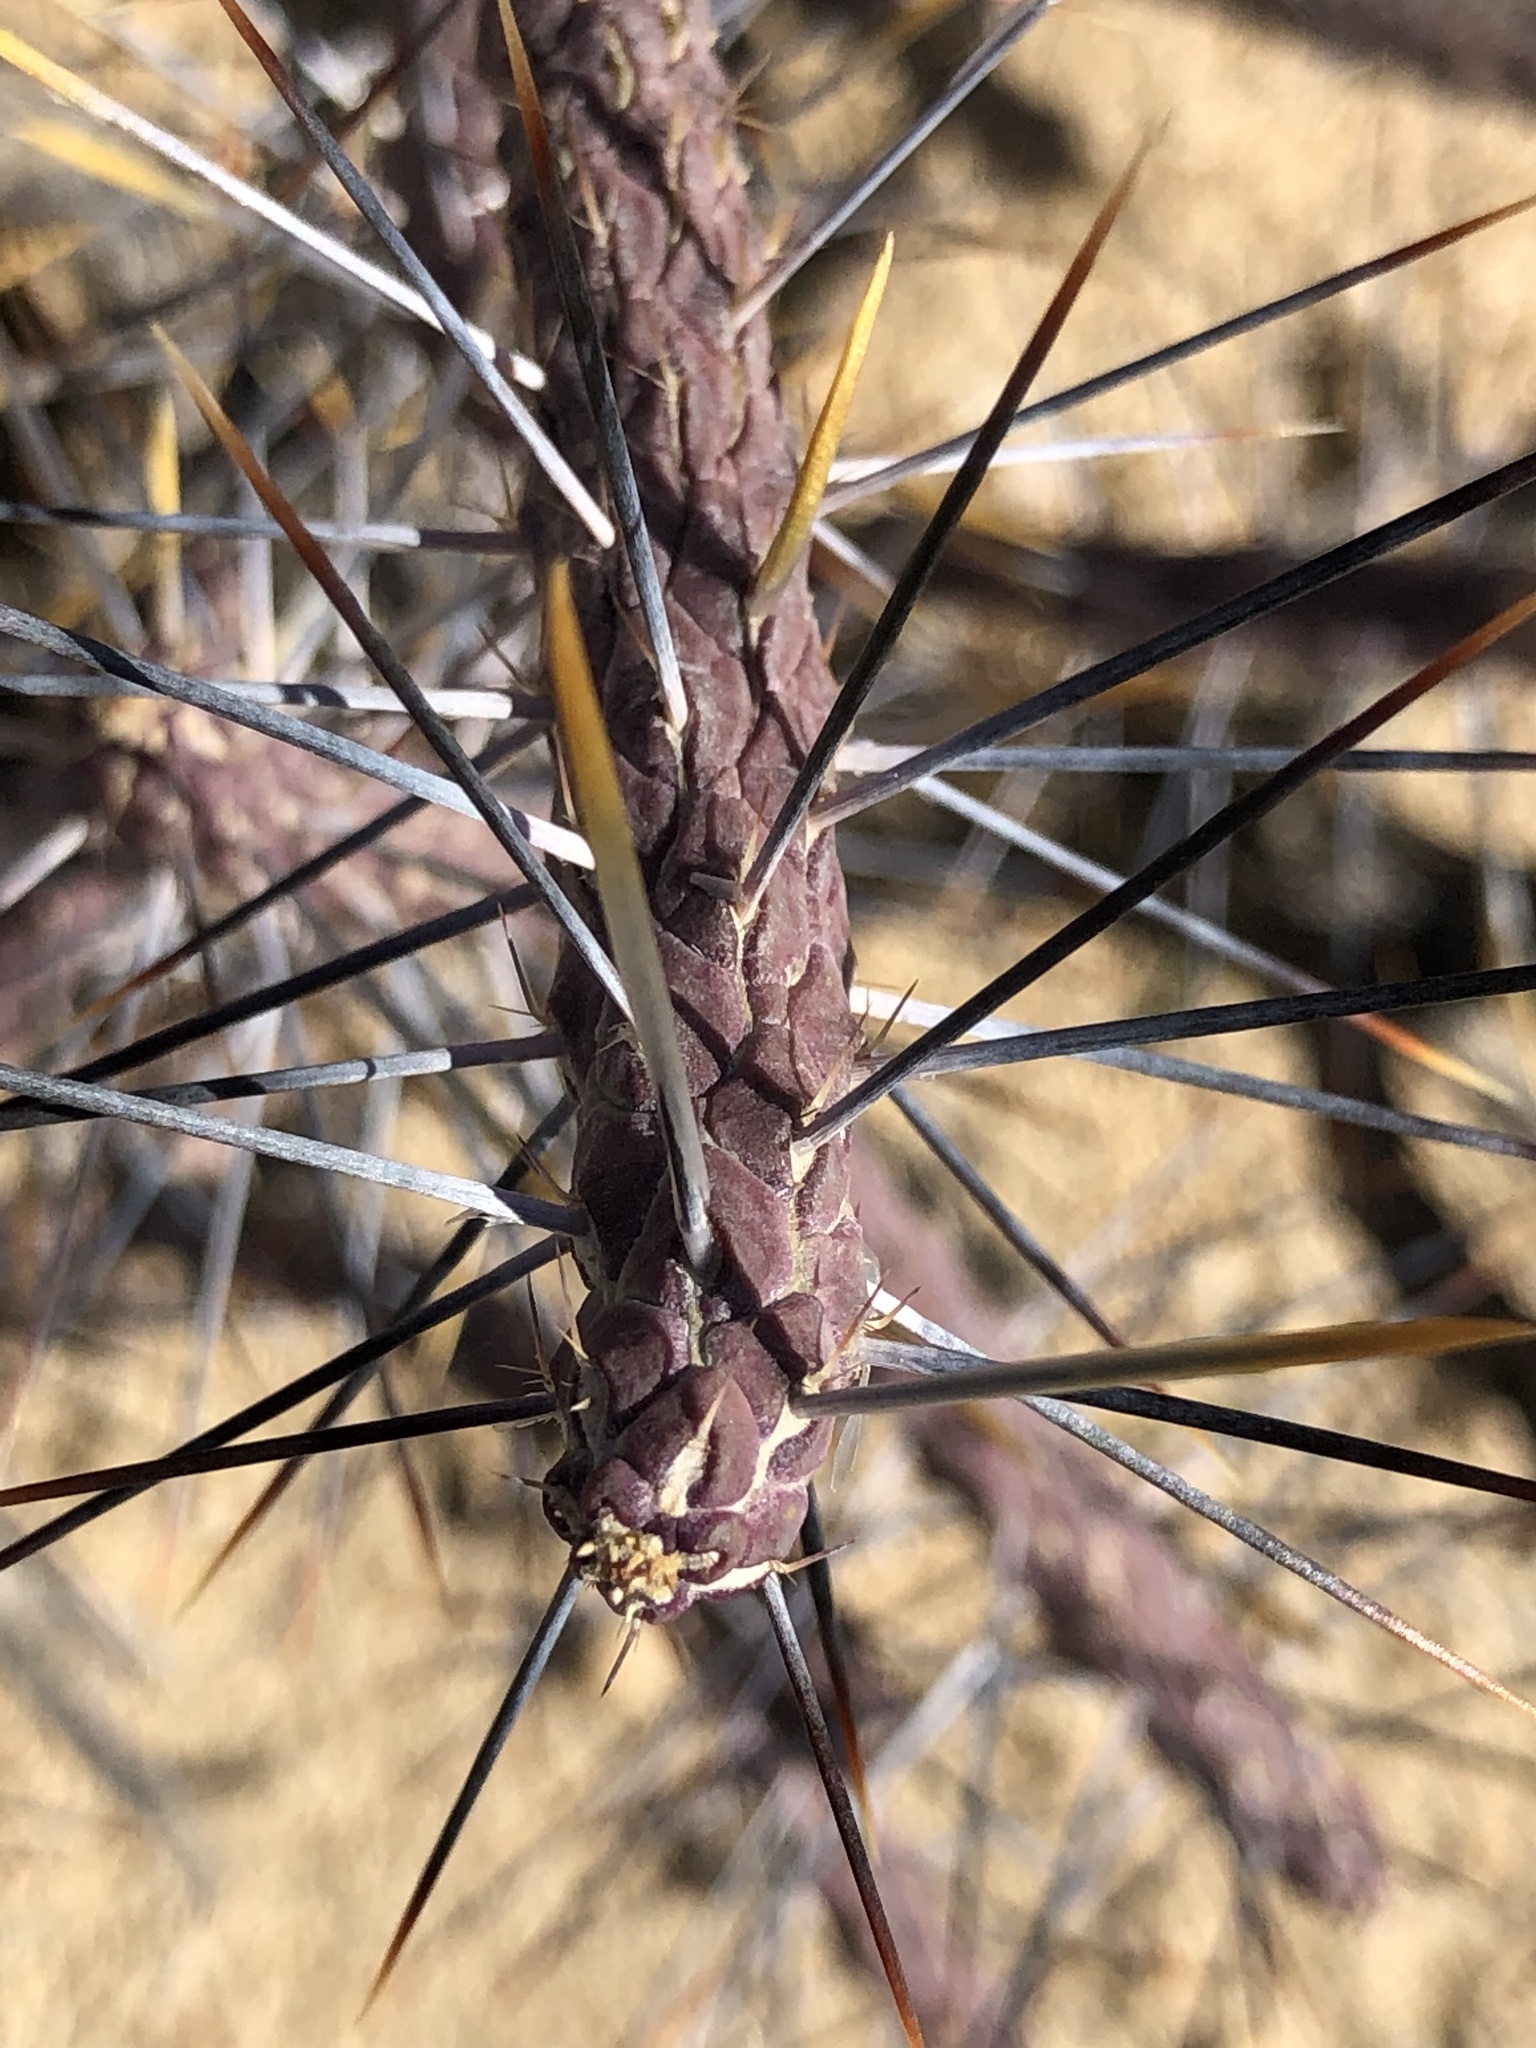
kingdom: Plantae
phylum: Tracheophyta
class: Magnoliopsida
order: Caryophyllales
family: Cactaceae
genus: Cylindropuntia
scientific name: Cylindropuntia ramosissima
